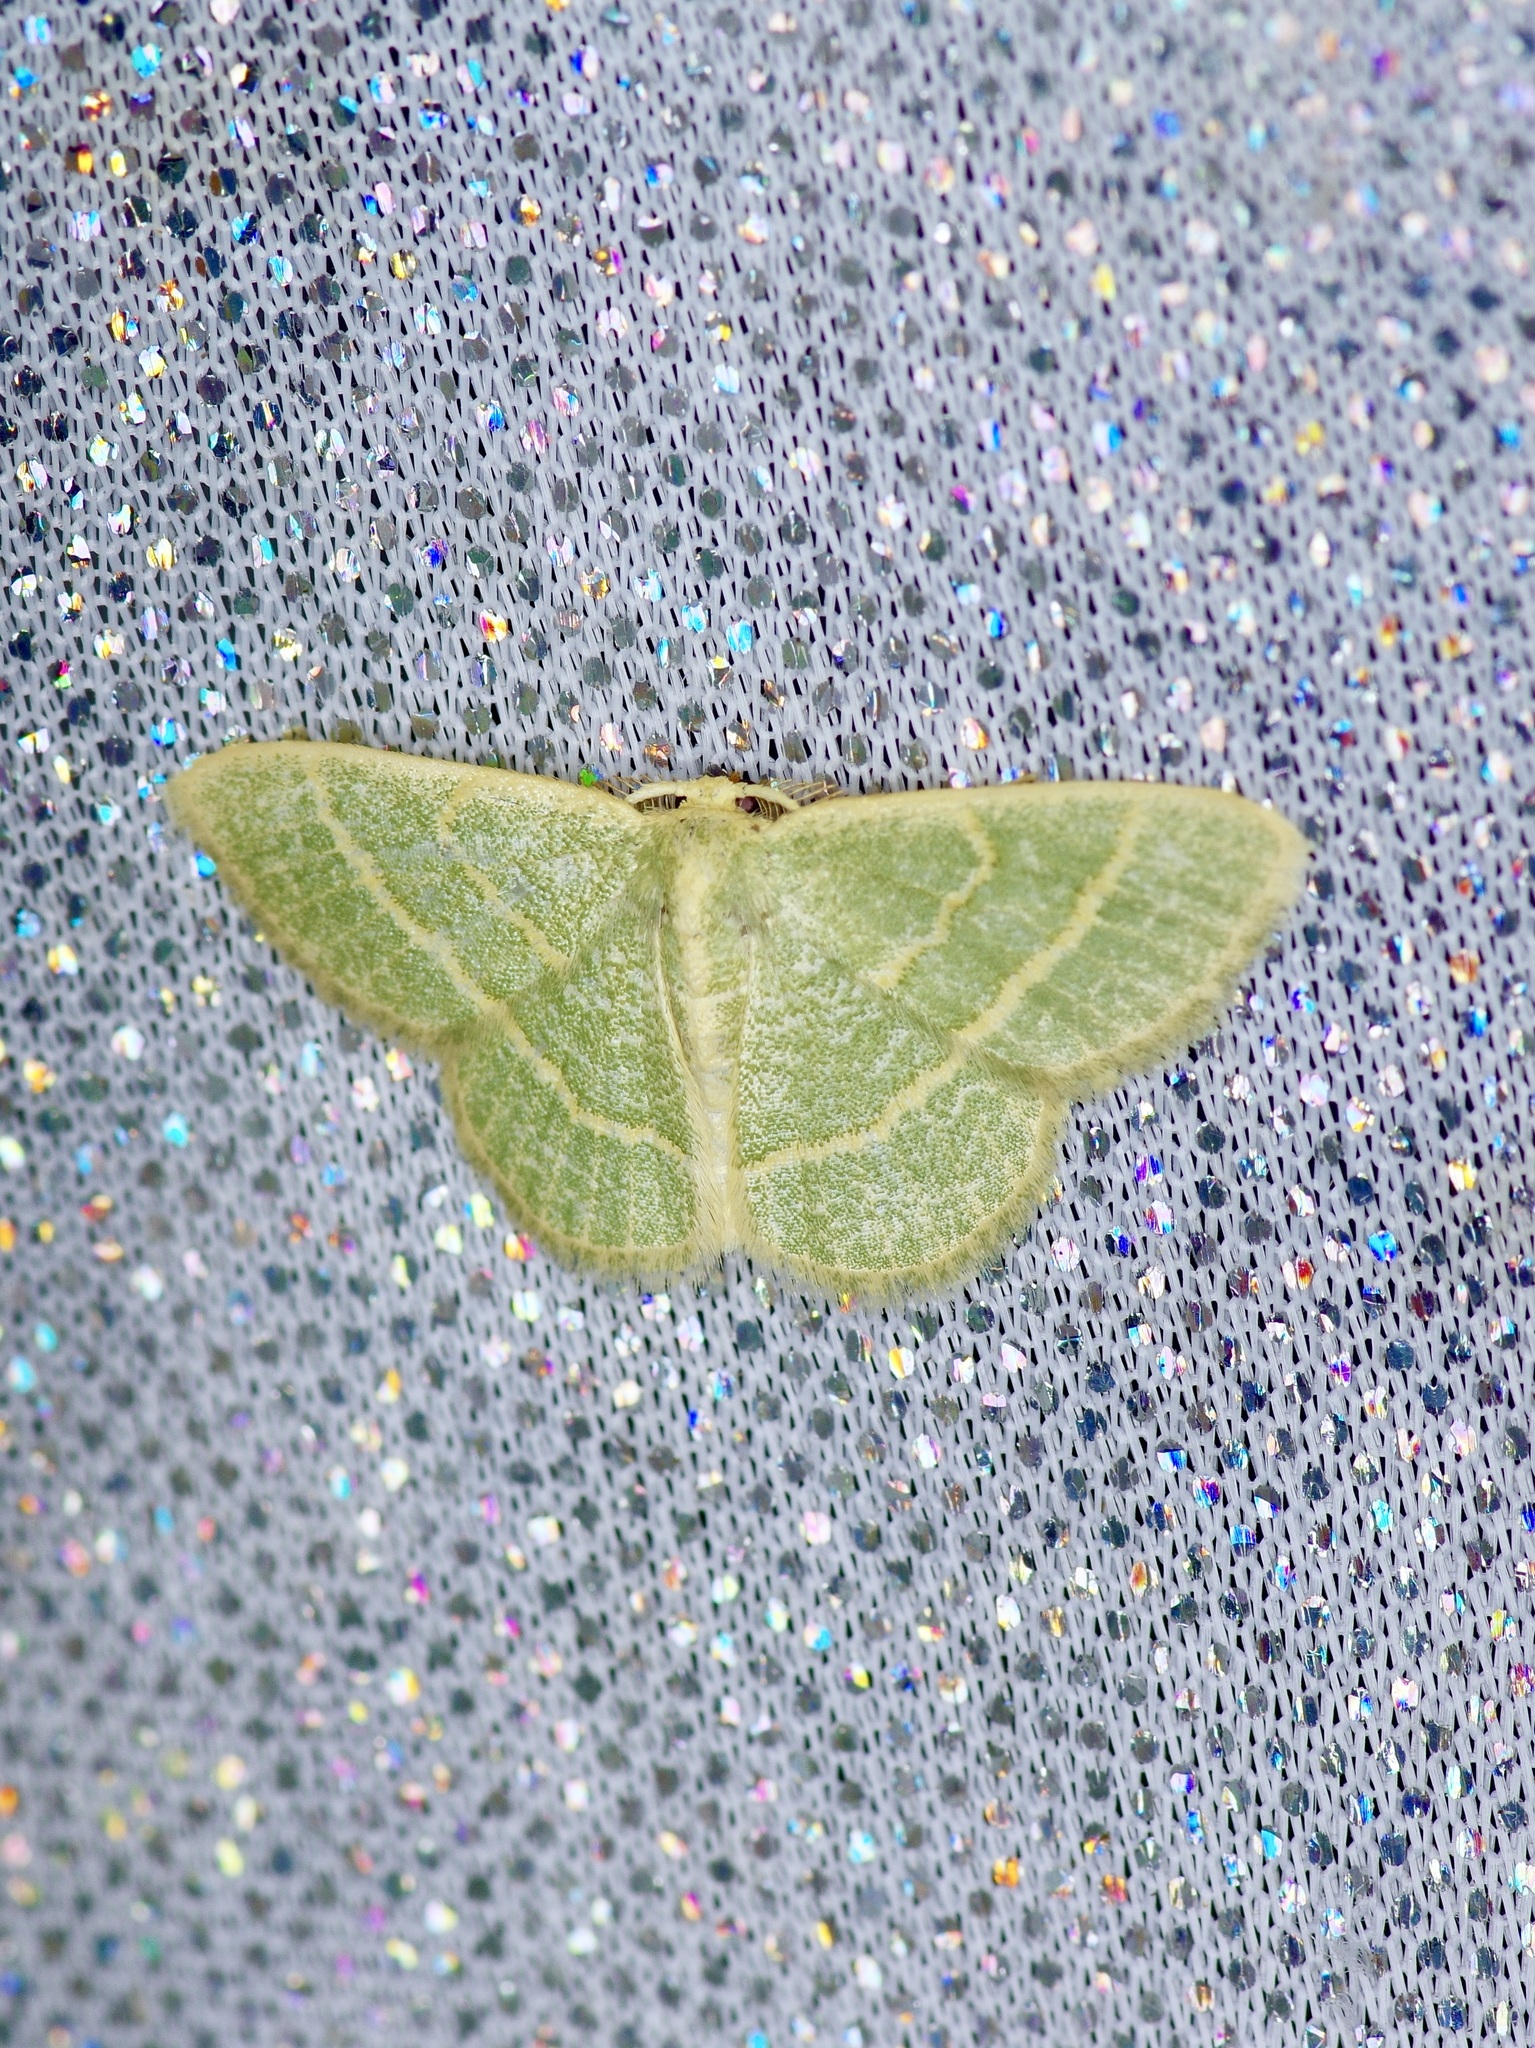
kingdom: Animalia
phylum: Arthropoda
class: Insecta
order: Lepidoptera
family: Geometridae
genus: Chlorochlamys
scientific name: Chlorochlamys chloroleucaria
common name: Blackberry looper
